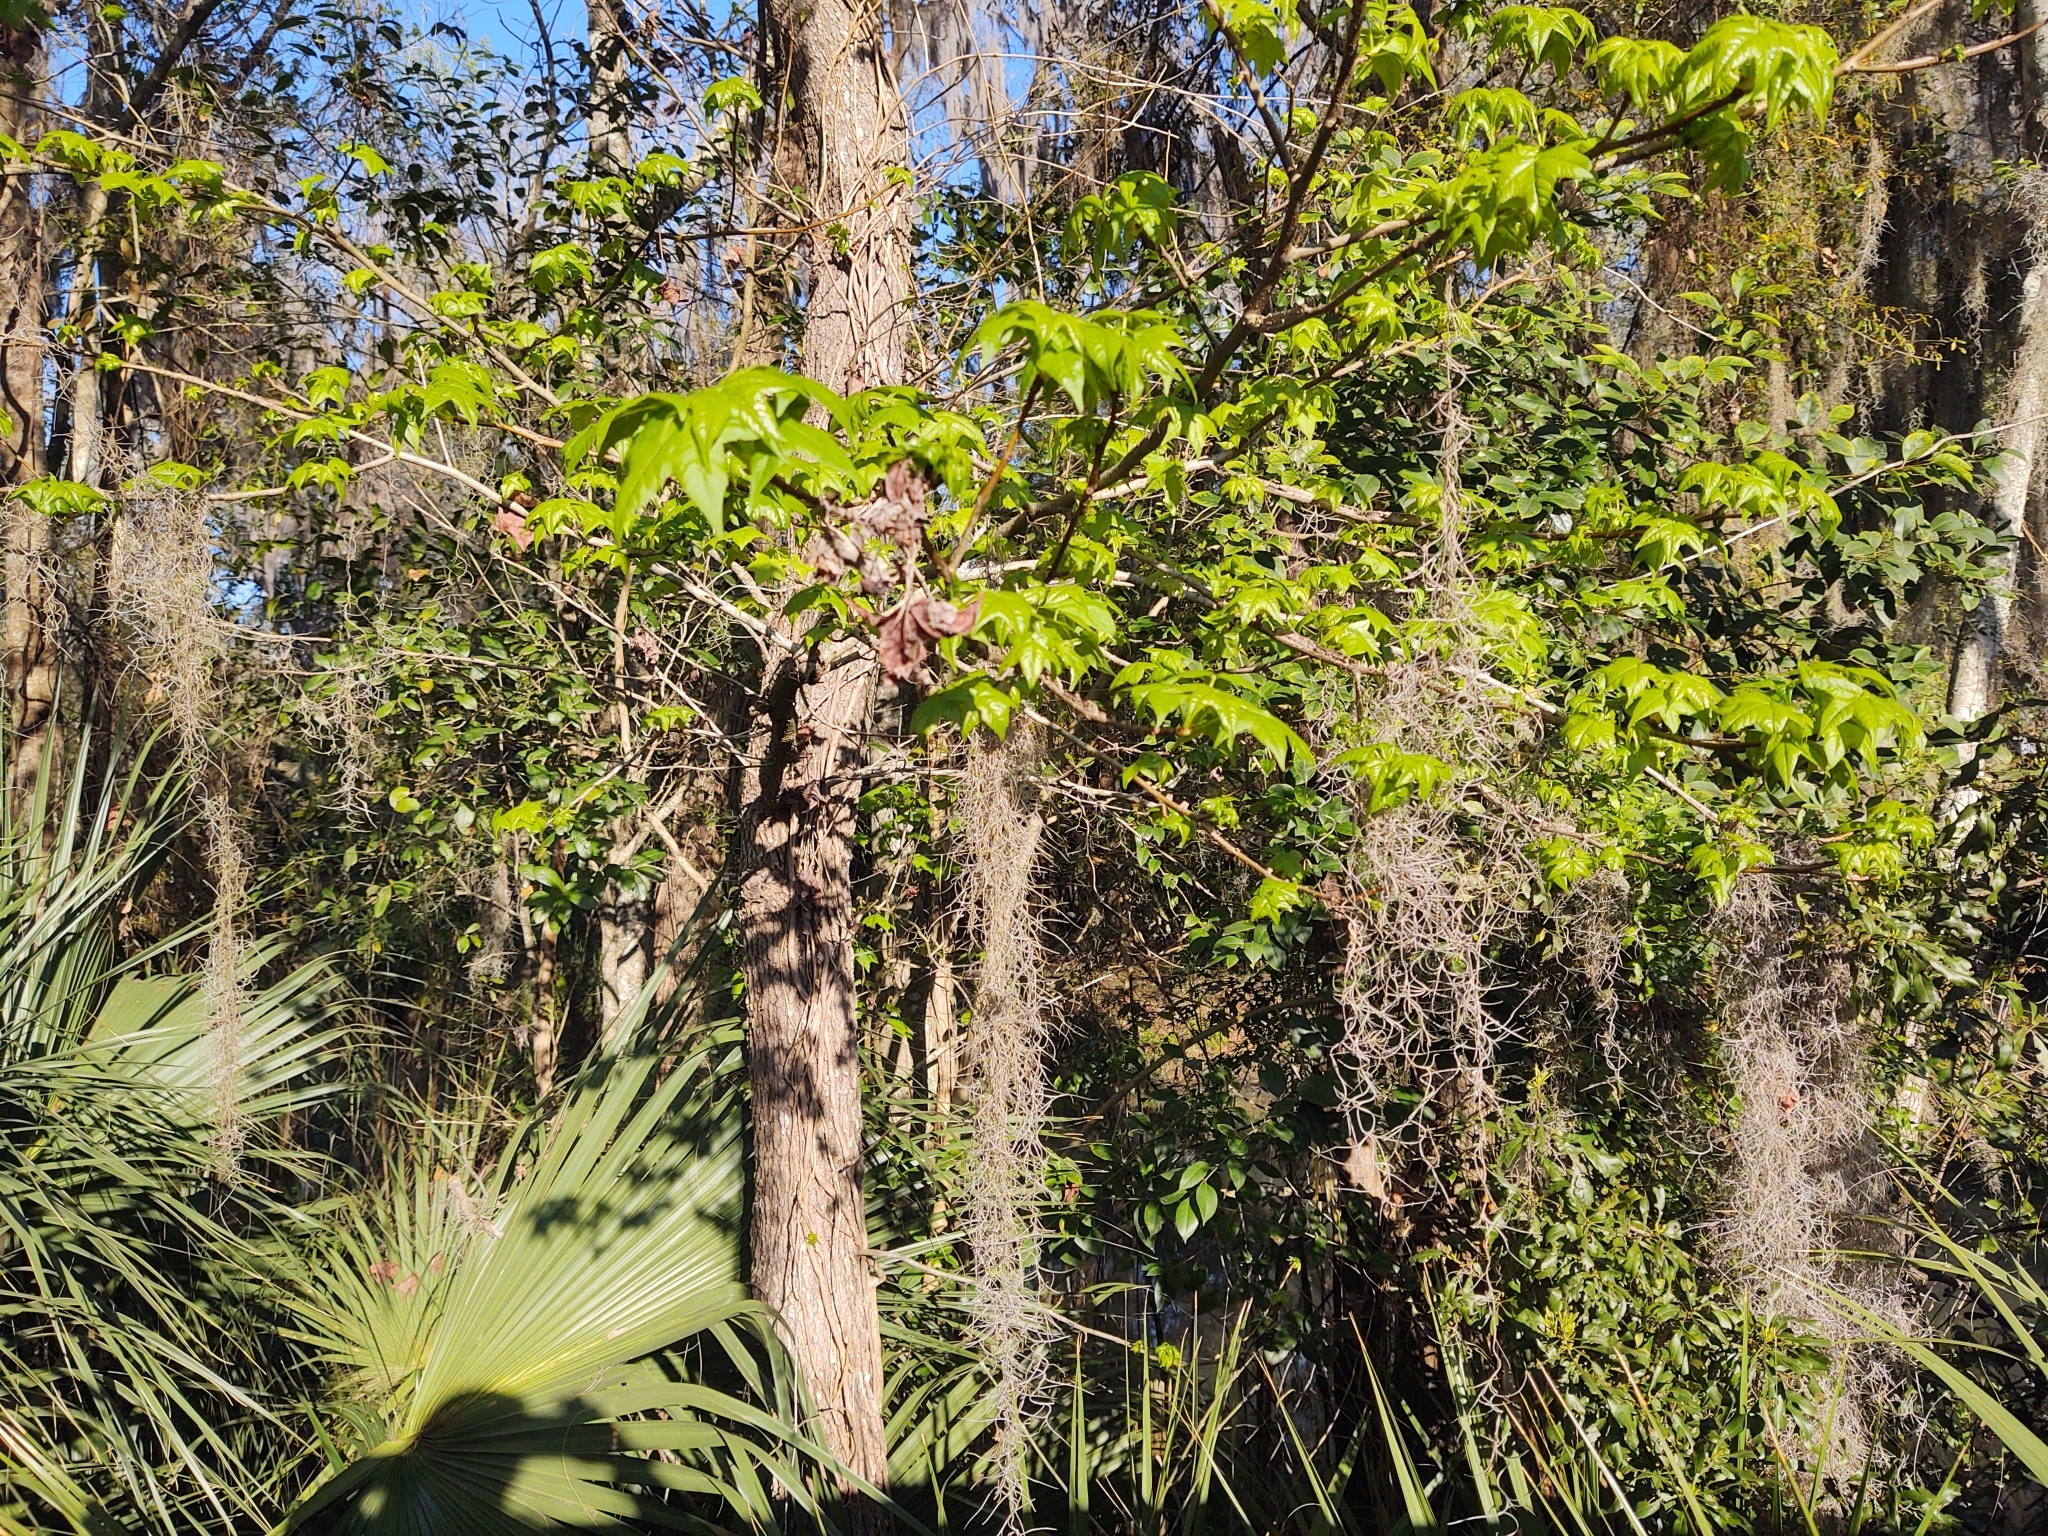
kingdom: Plantae
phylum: Tracheophyta
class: Magnoliopsida
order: Saxifragales
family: Altingiaceae
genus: Liquidambar
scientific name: Liquidambar styraciflua
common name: Sweet gum
